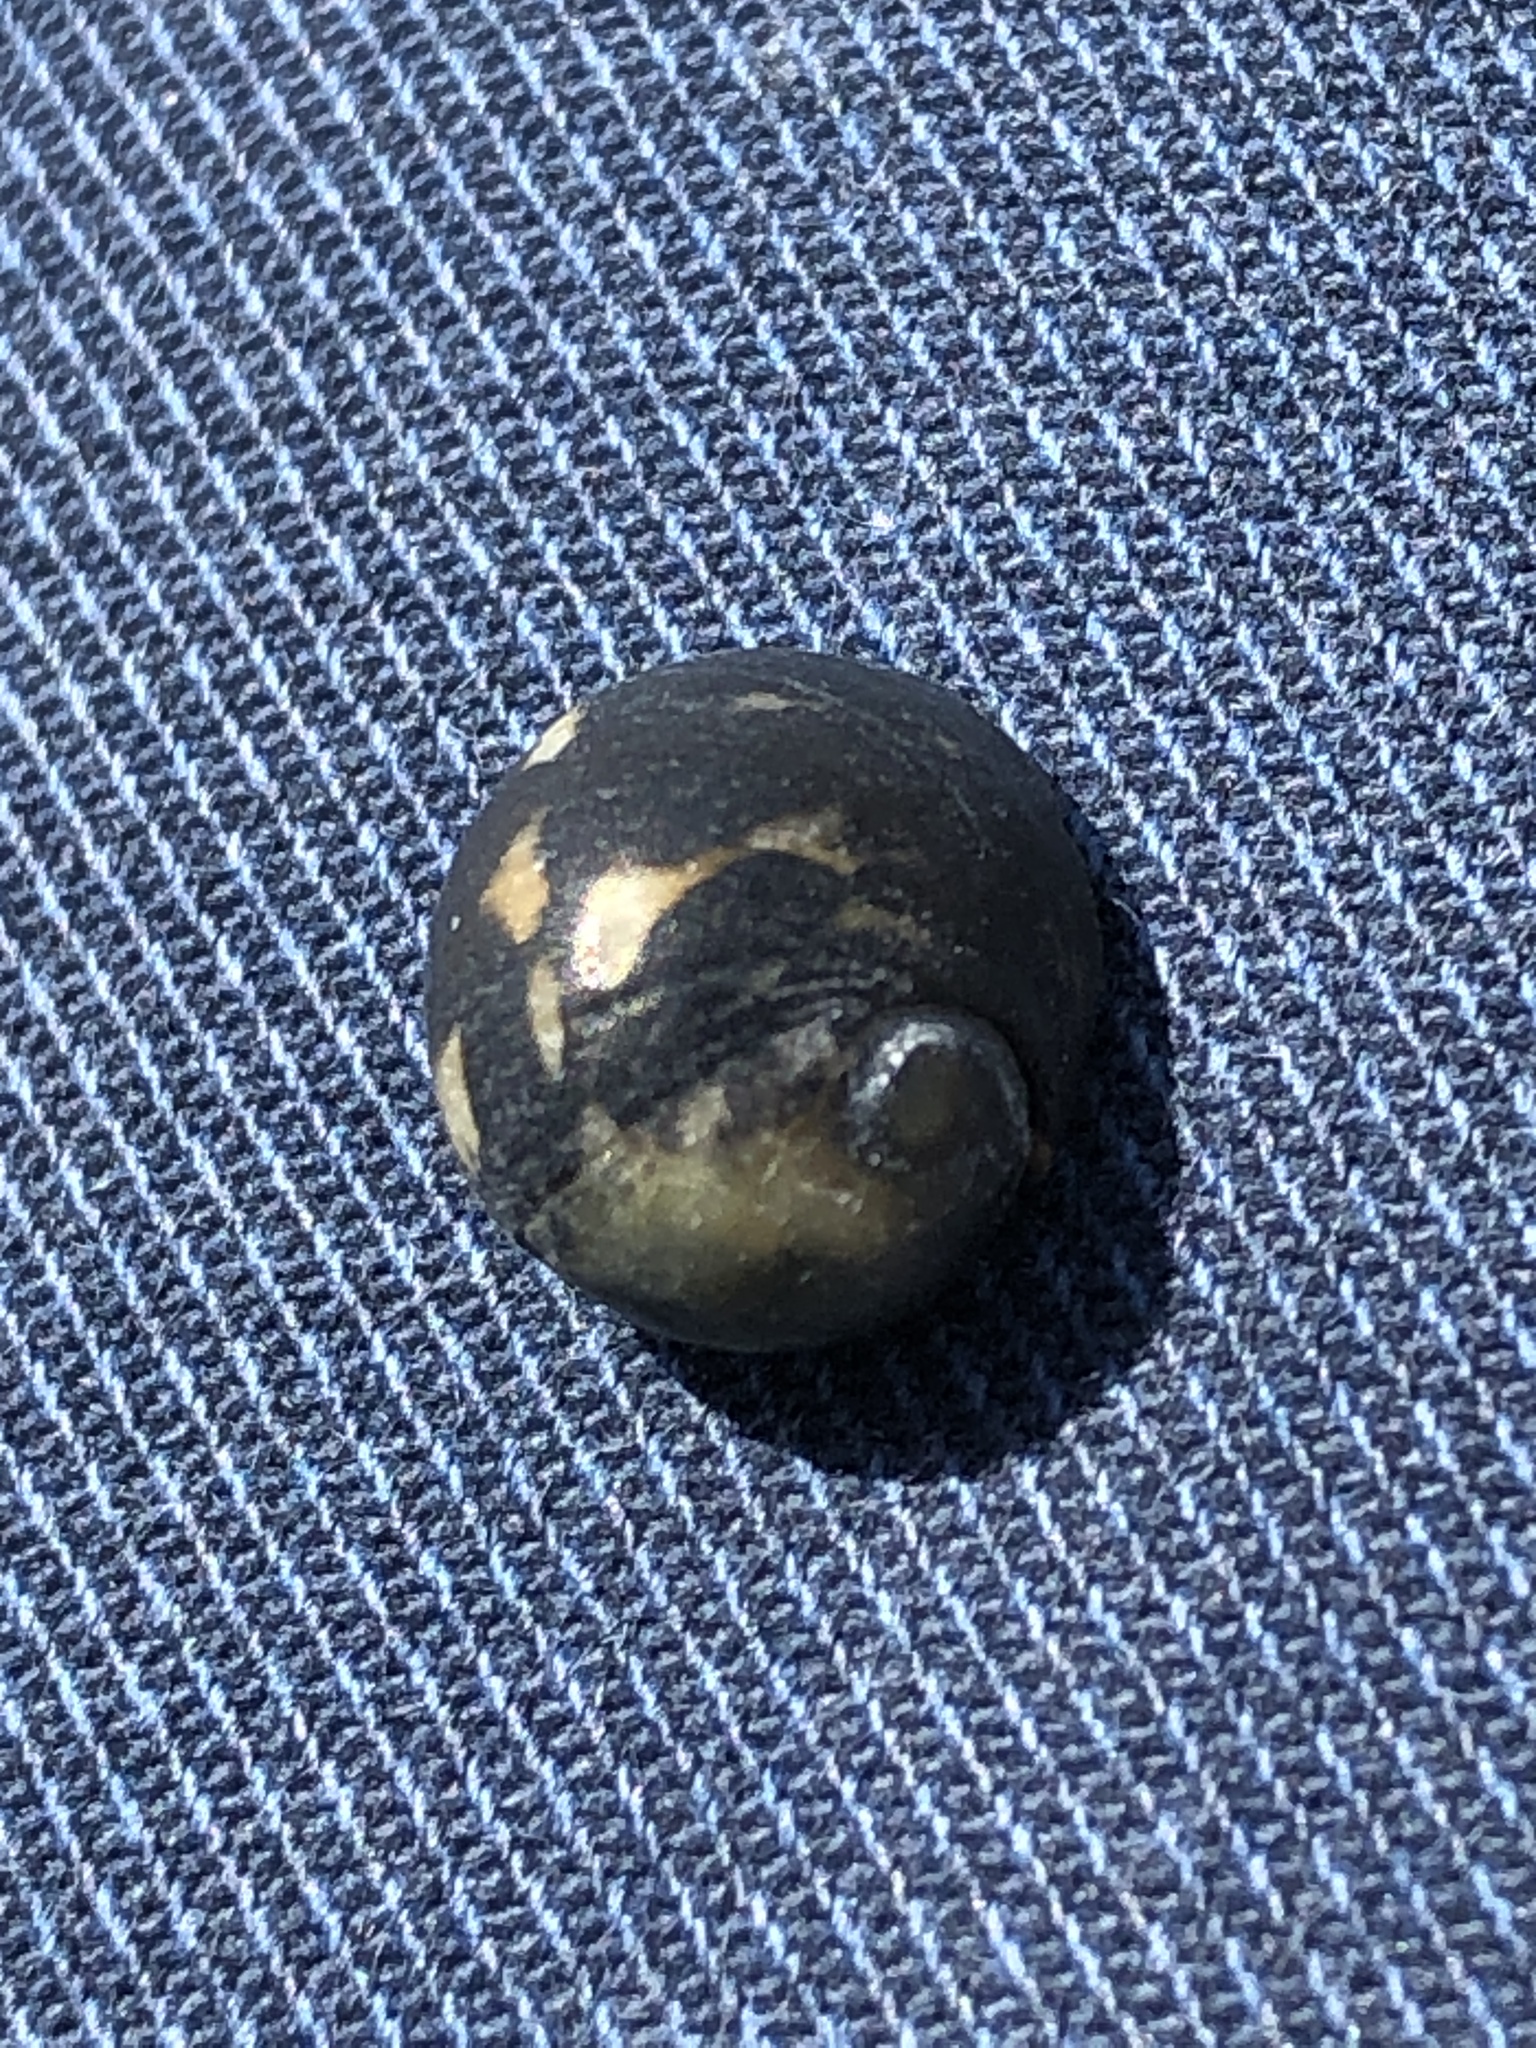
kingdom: Animalia
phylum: Mollusca
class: Gastropoda
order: Cycloneritida
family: Neritidae
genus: Nerita
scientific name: Nerita japonica
